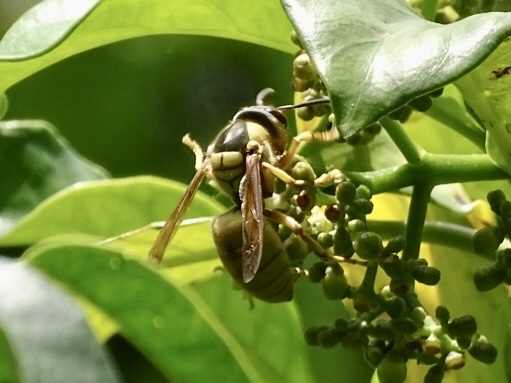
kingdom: Animalia
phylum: Arthropoda
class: Insecta
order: Hymenoptera
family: Vespidae
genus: Vespa
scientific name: Vespa bicolor
